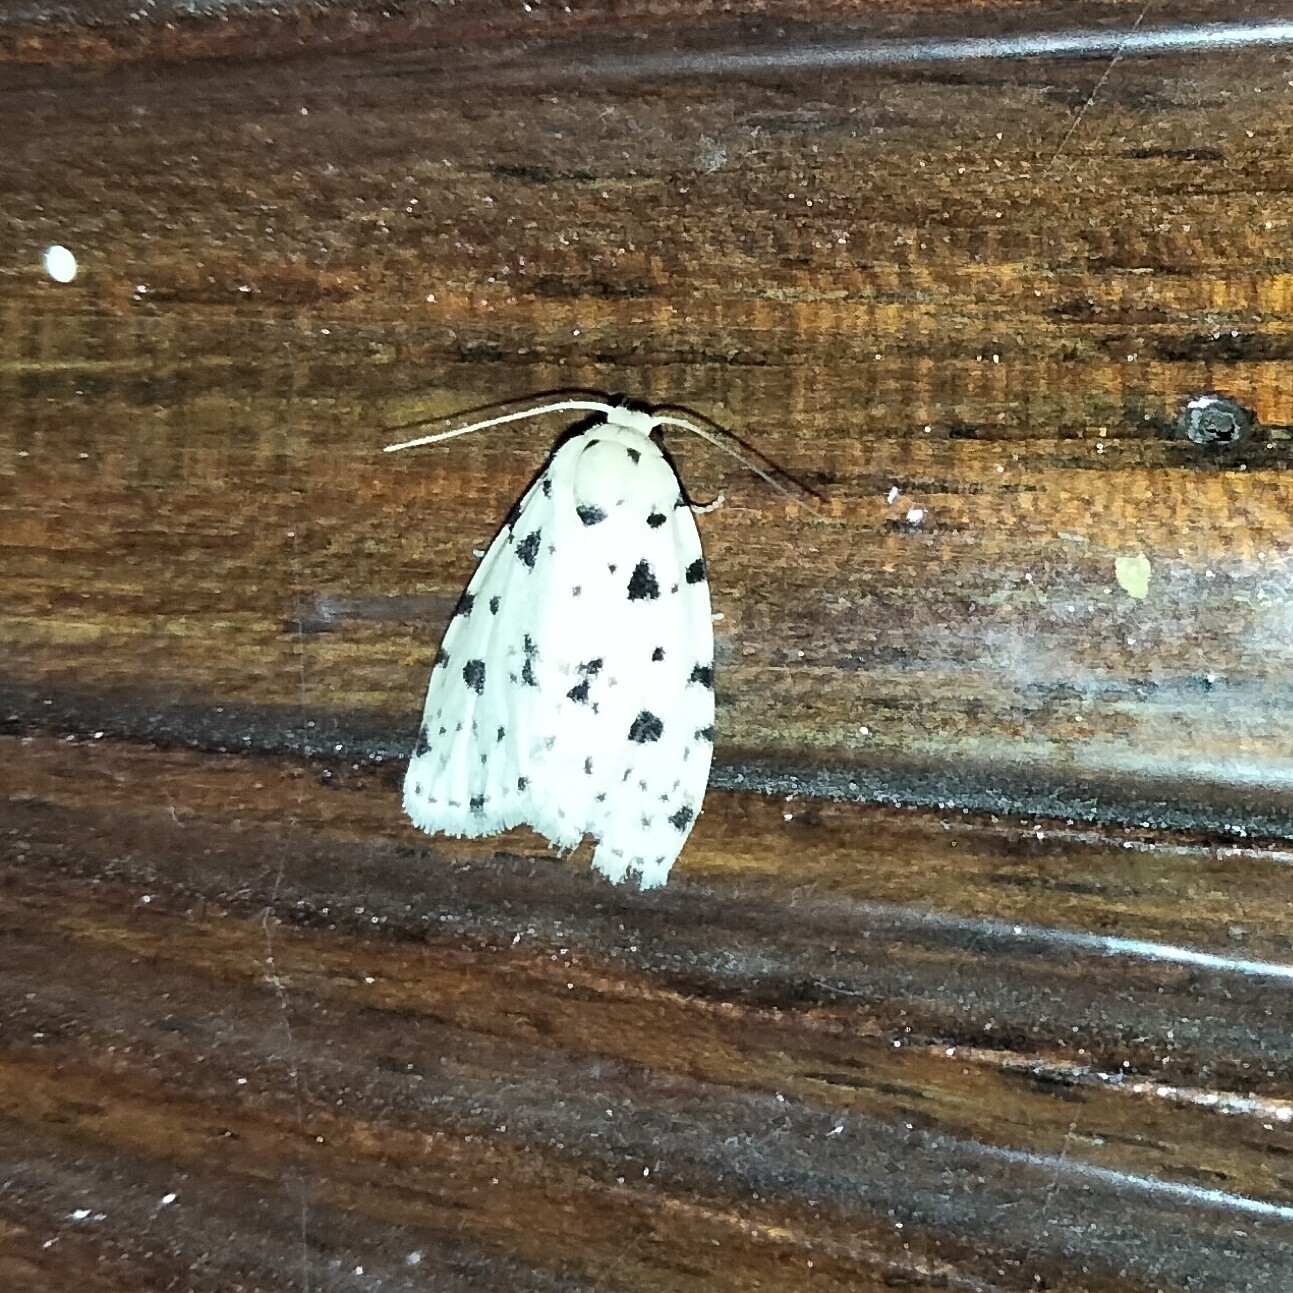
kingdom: Animalia
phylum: Arthropoda
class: Insecta
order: Lepidoptera
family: Erebidae
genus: Siccia
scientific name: Siccia guttulosana
